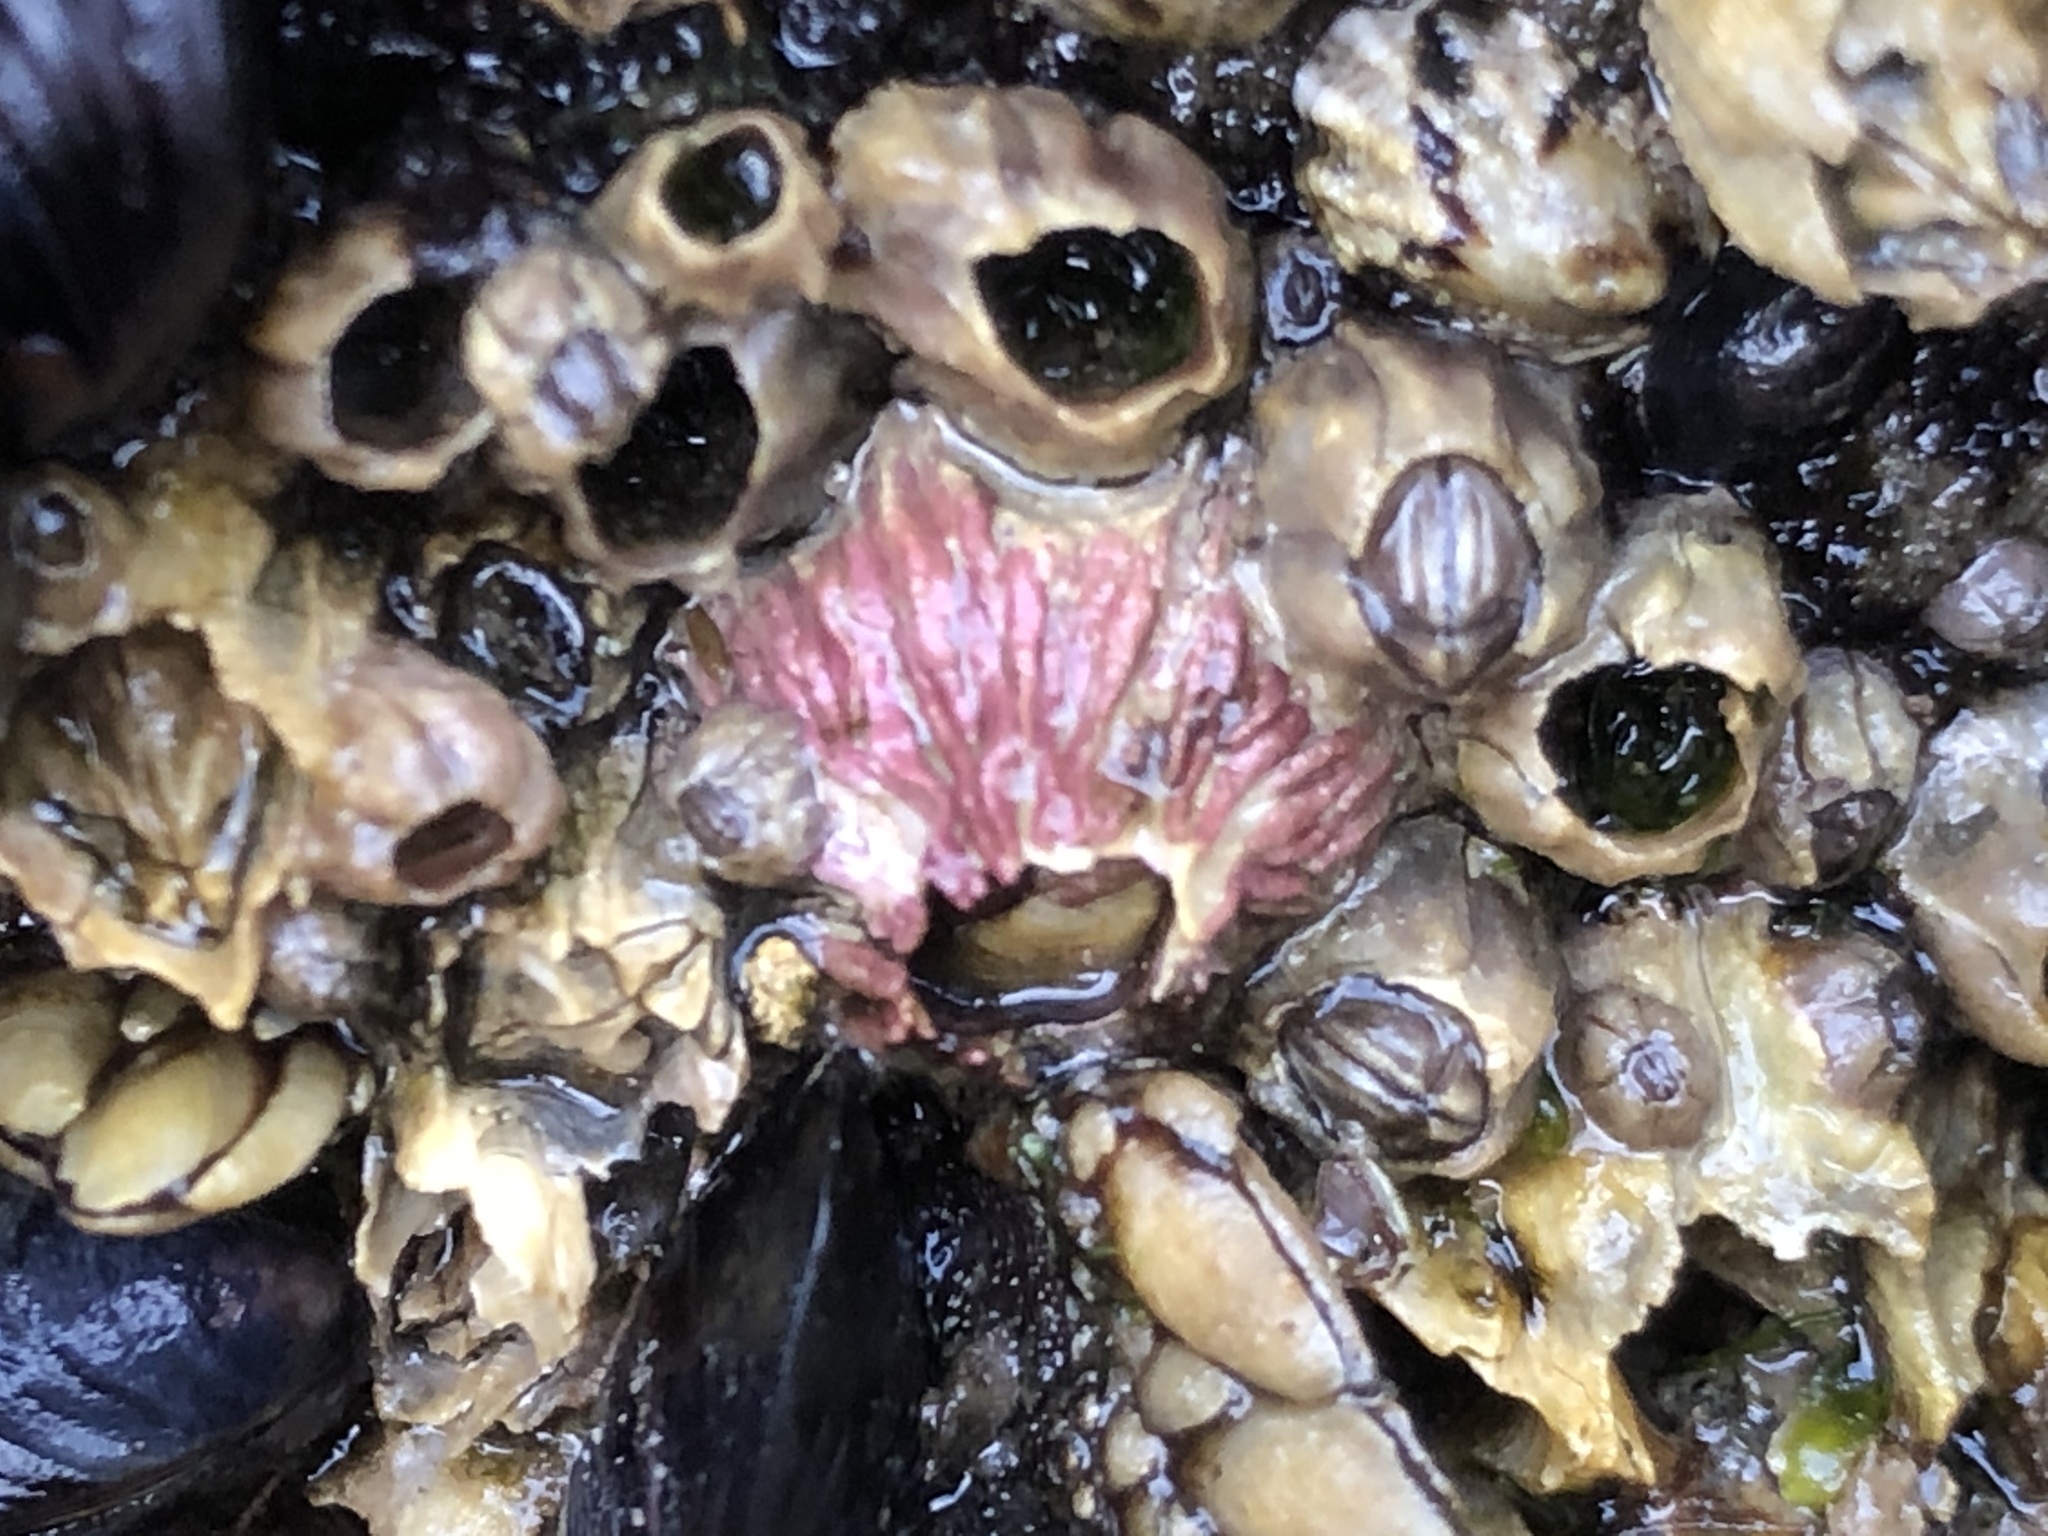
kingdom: Animalia
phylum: Arthropoda
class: Maxillopoda
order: Sessilia
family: Tetraclitidae
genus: Tetraclita
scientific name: Tetraclita rubescens
